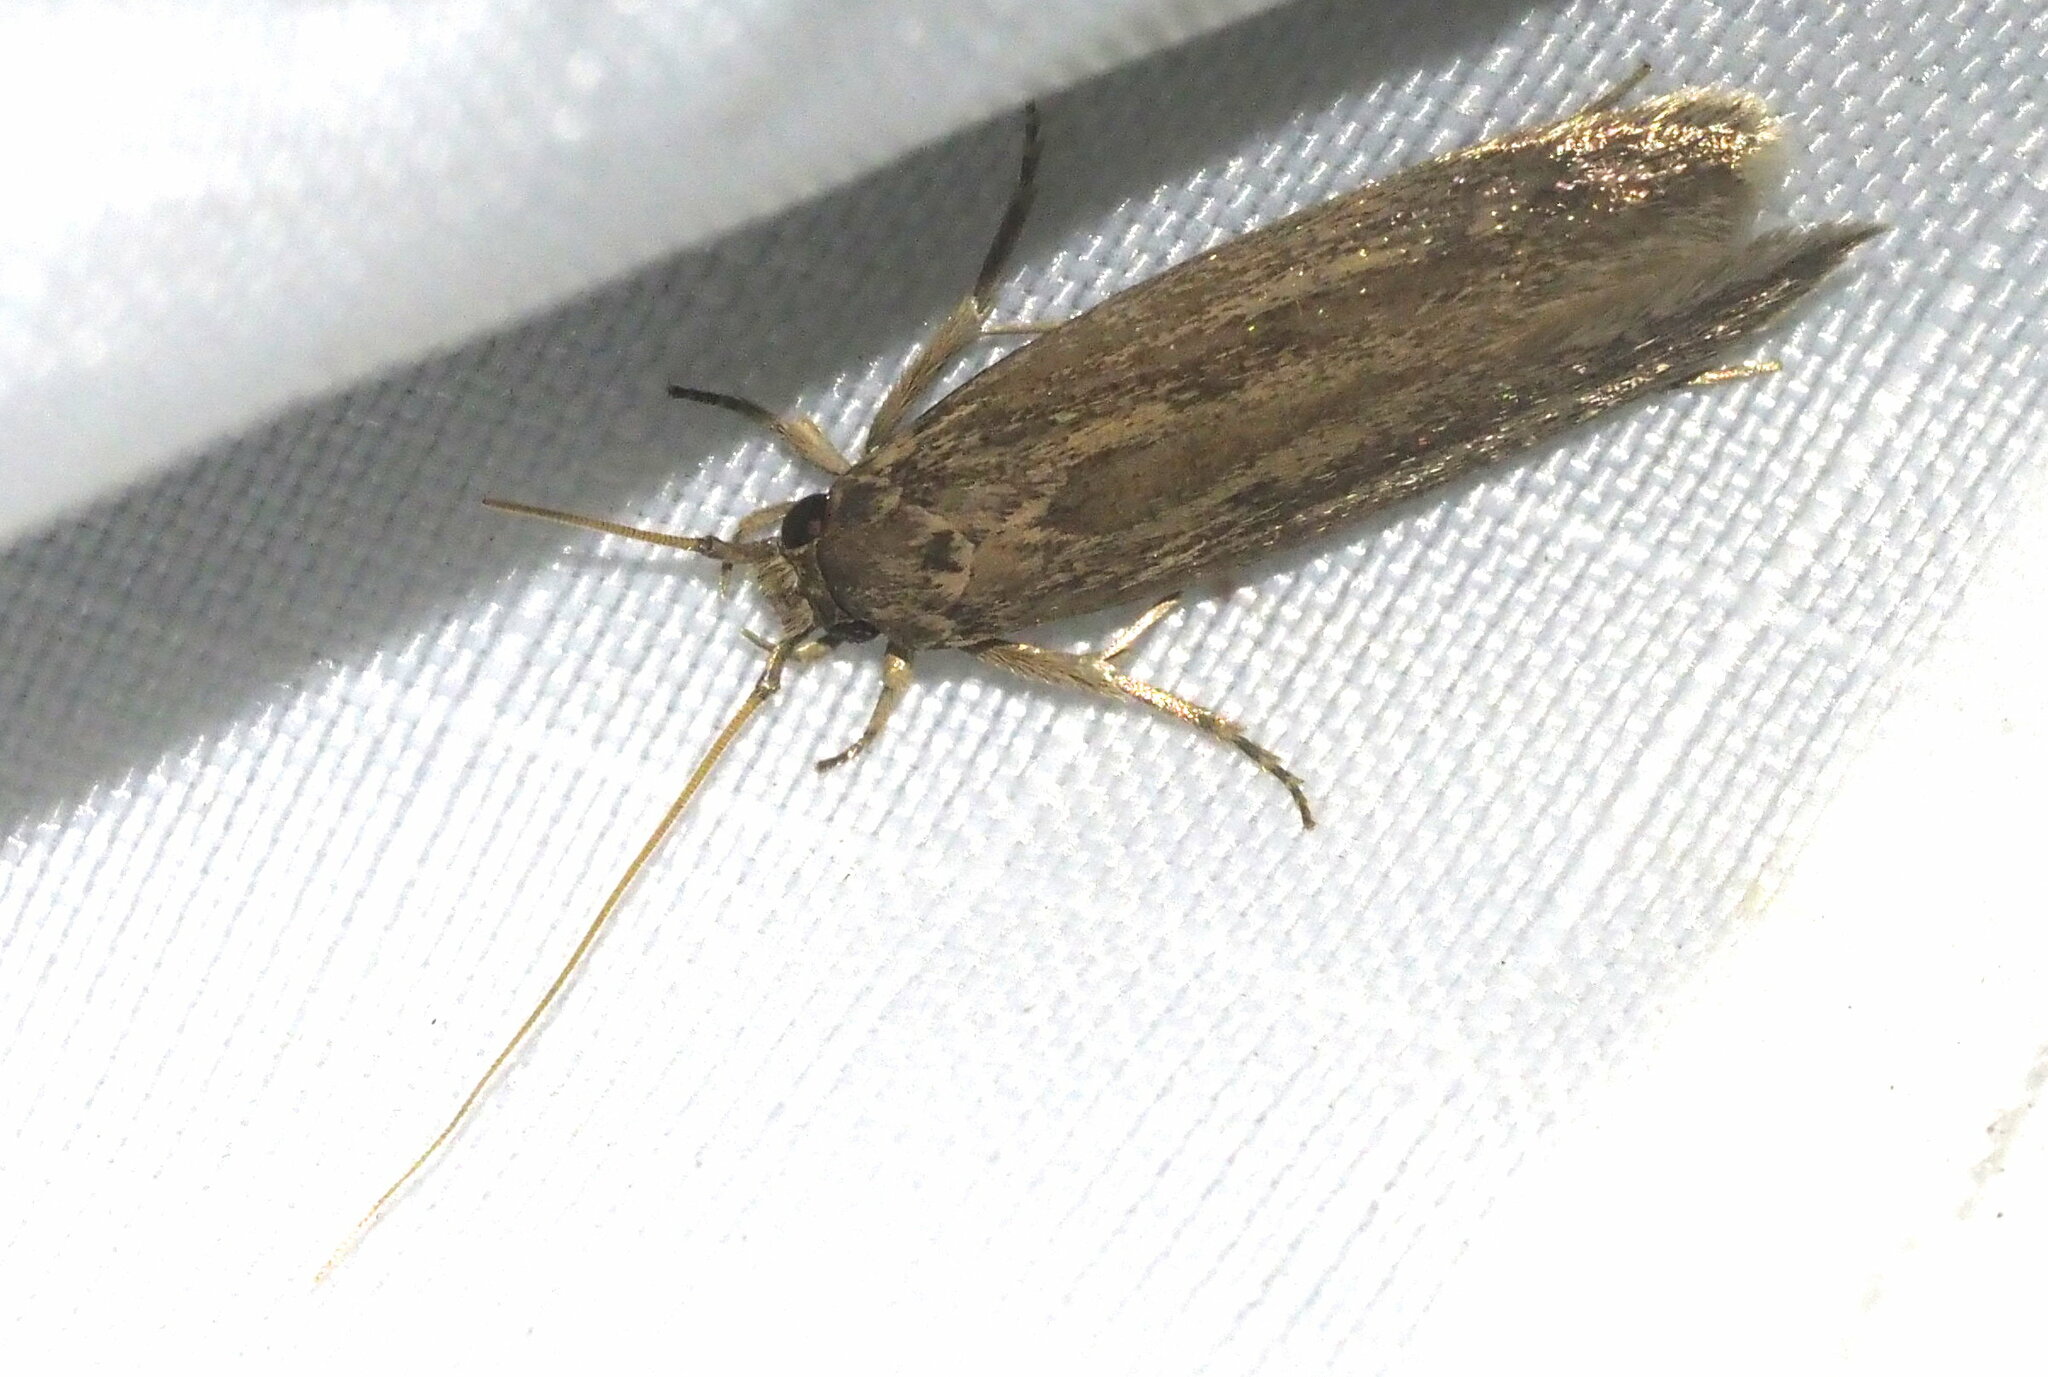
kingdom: Animalia
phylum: Arthropoda
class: Insecta
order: Lepidoptera
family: Tineidae
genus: Opogona
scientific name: Opogona sacchari
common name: Banana bud moth
